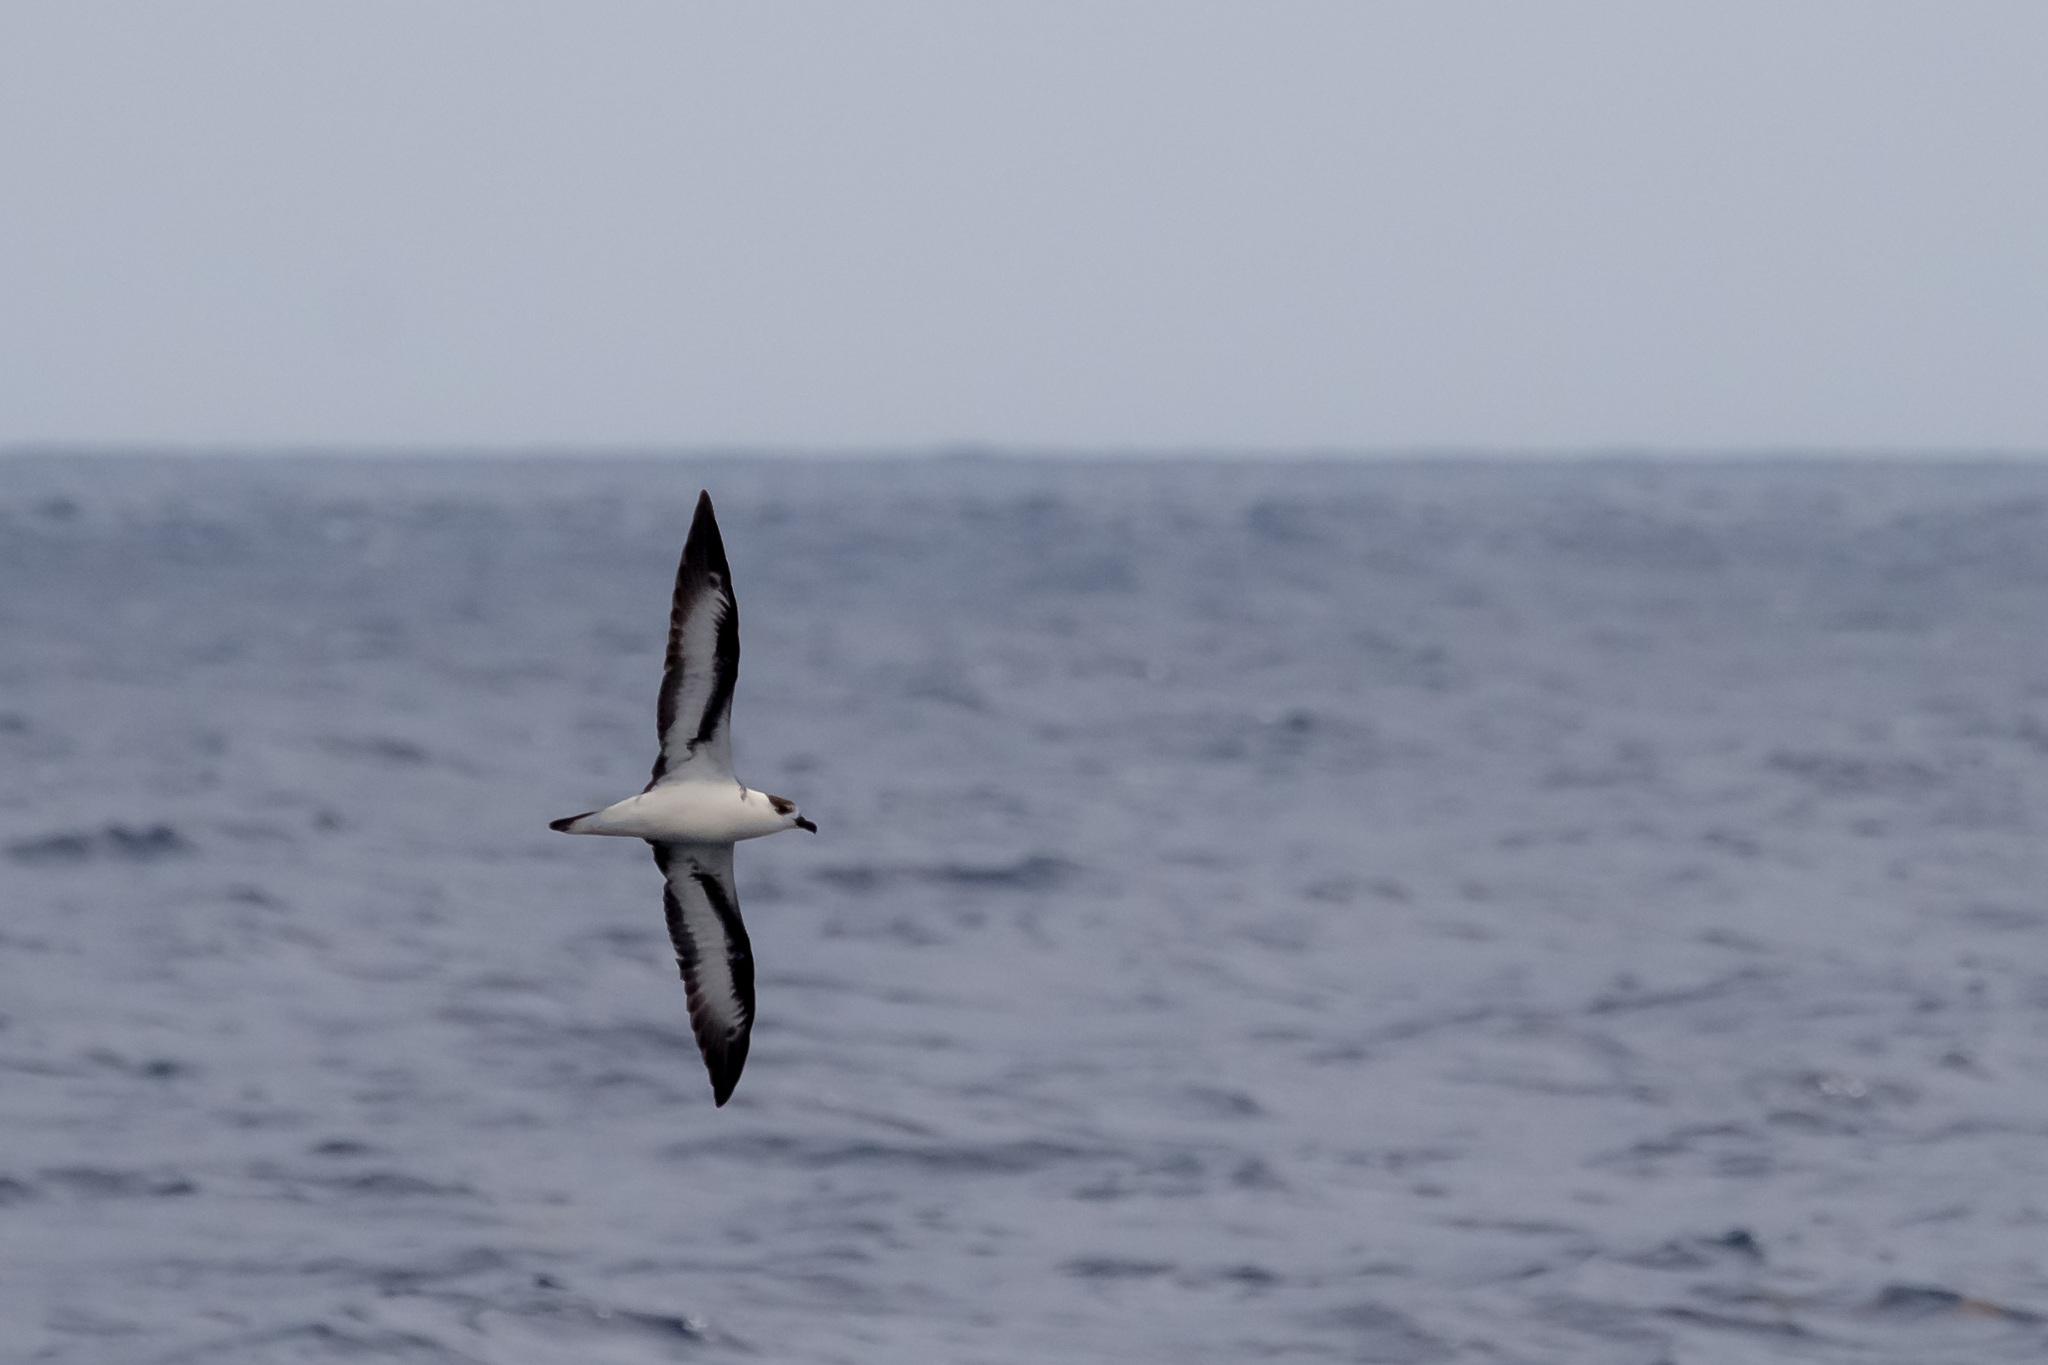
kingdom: Animalia
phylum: Chordata
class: Aves
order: Procellariiformes
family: Procellariidae
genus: Pterodroma
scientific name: Pterodroma hasitata
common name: Black-capped petrel
